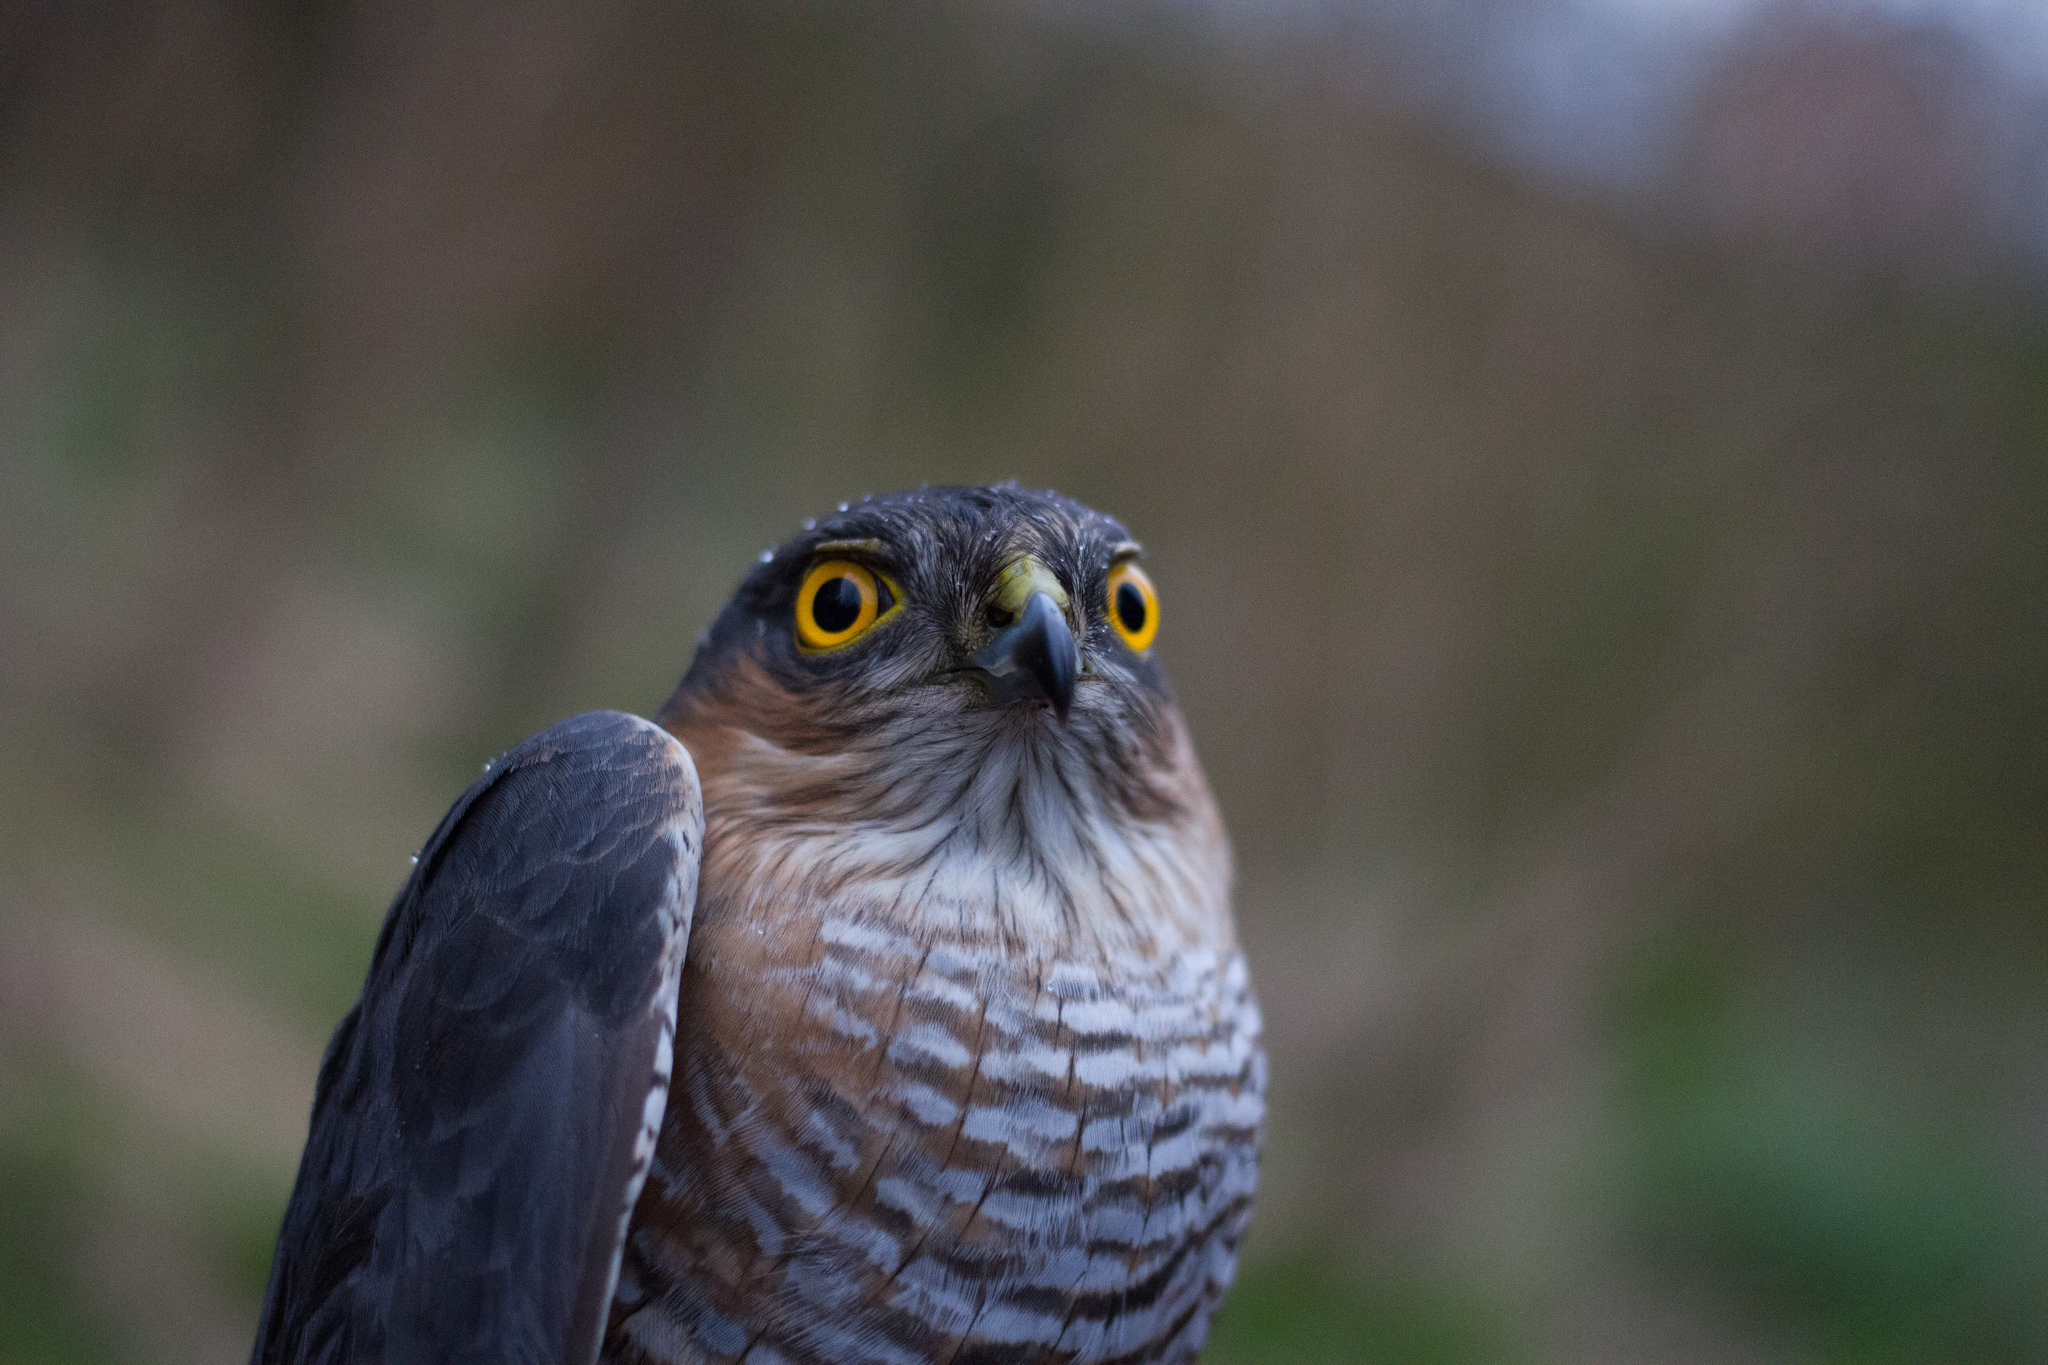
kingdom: Animalia
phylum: Chordata
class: Aves
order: Accipitriformes
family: Accipitridae
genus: Accipiter
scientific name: Accipiter nisus
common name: Eurasian sparrowhawk
